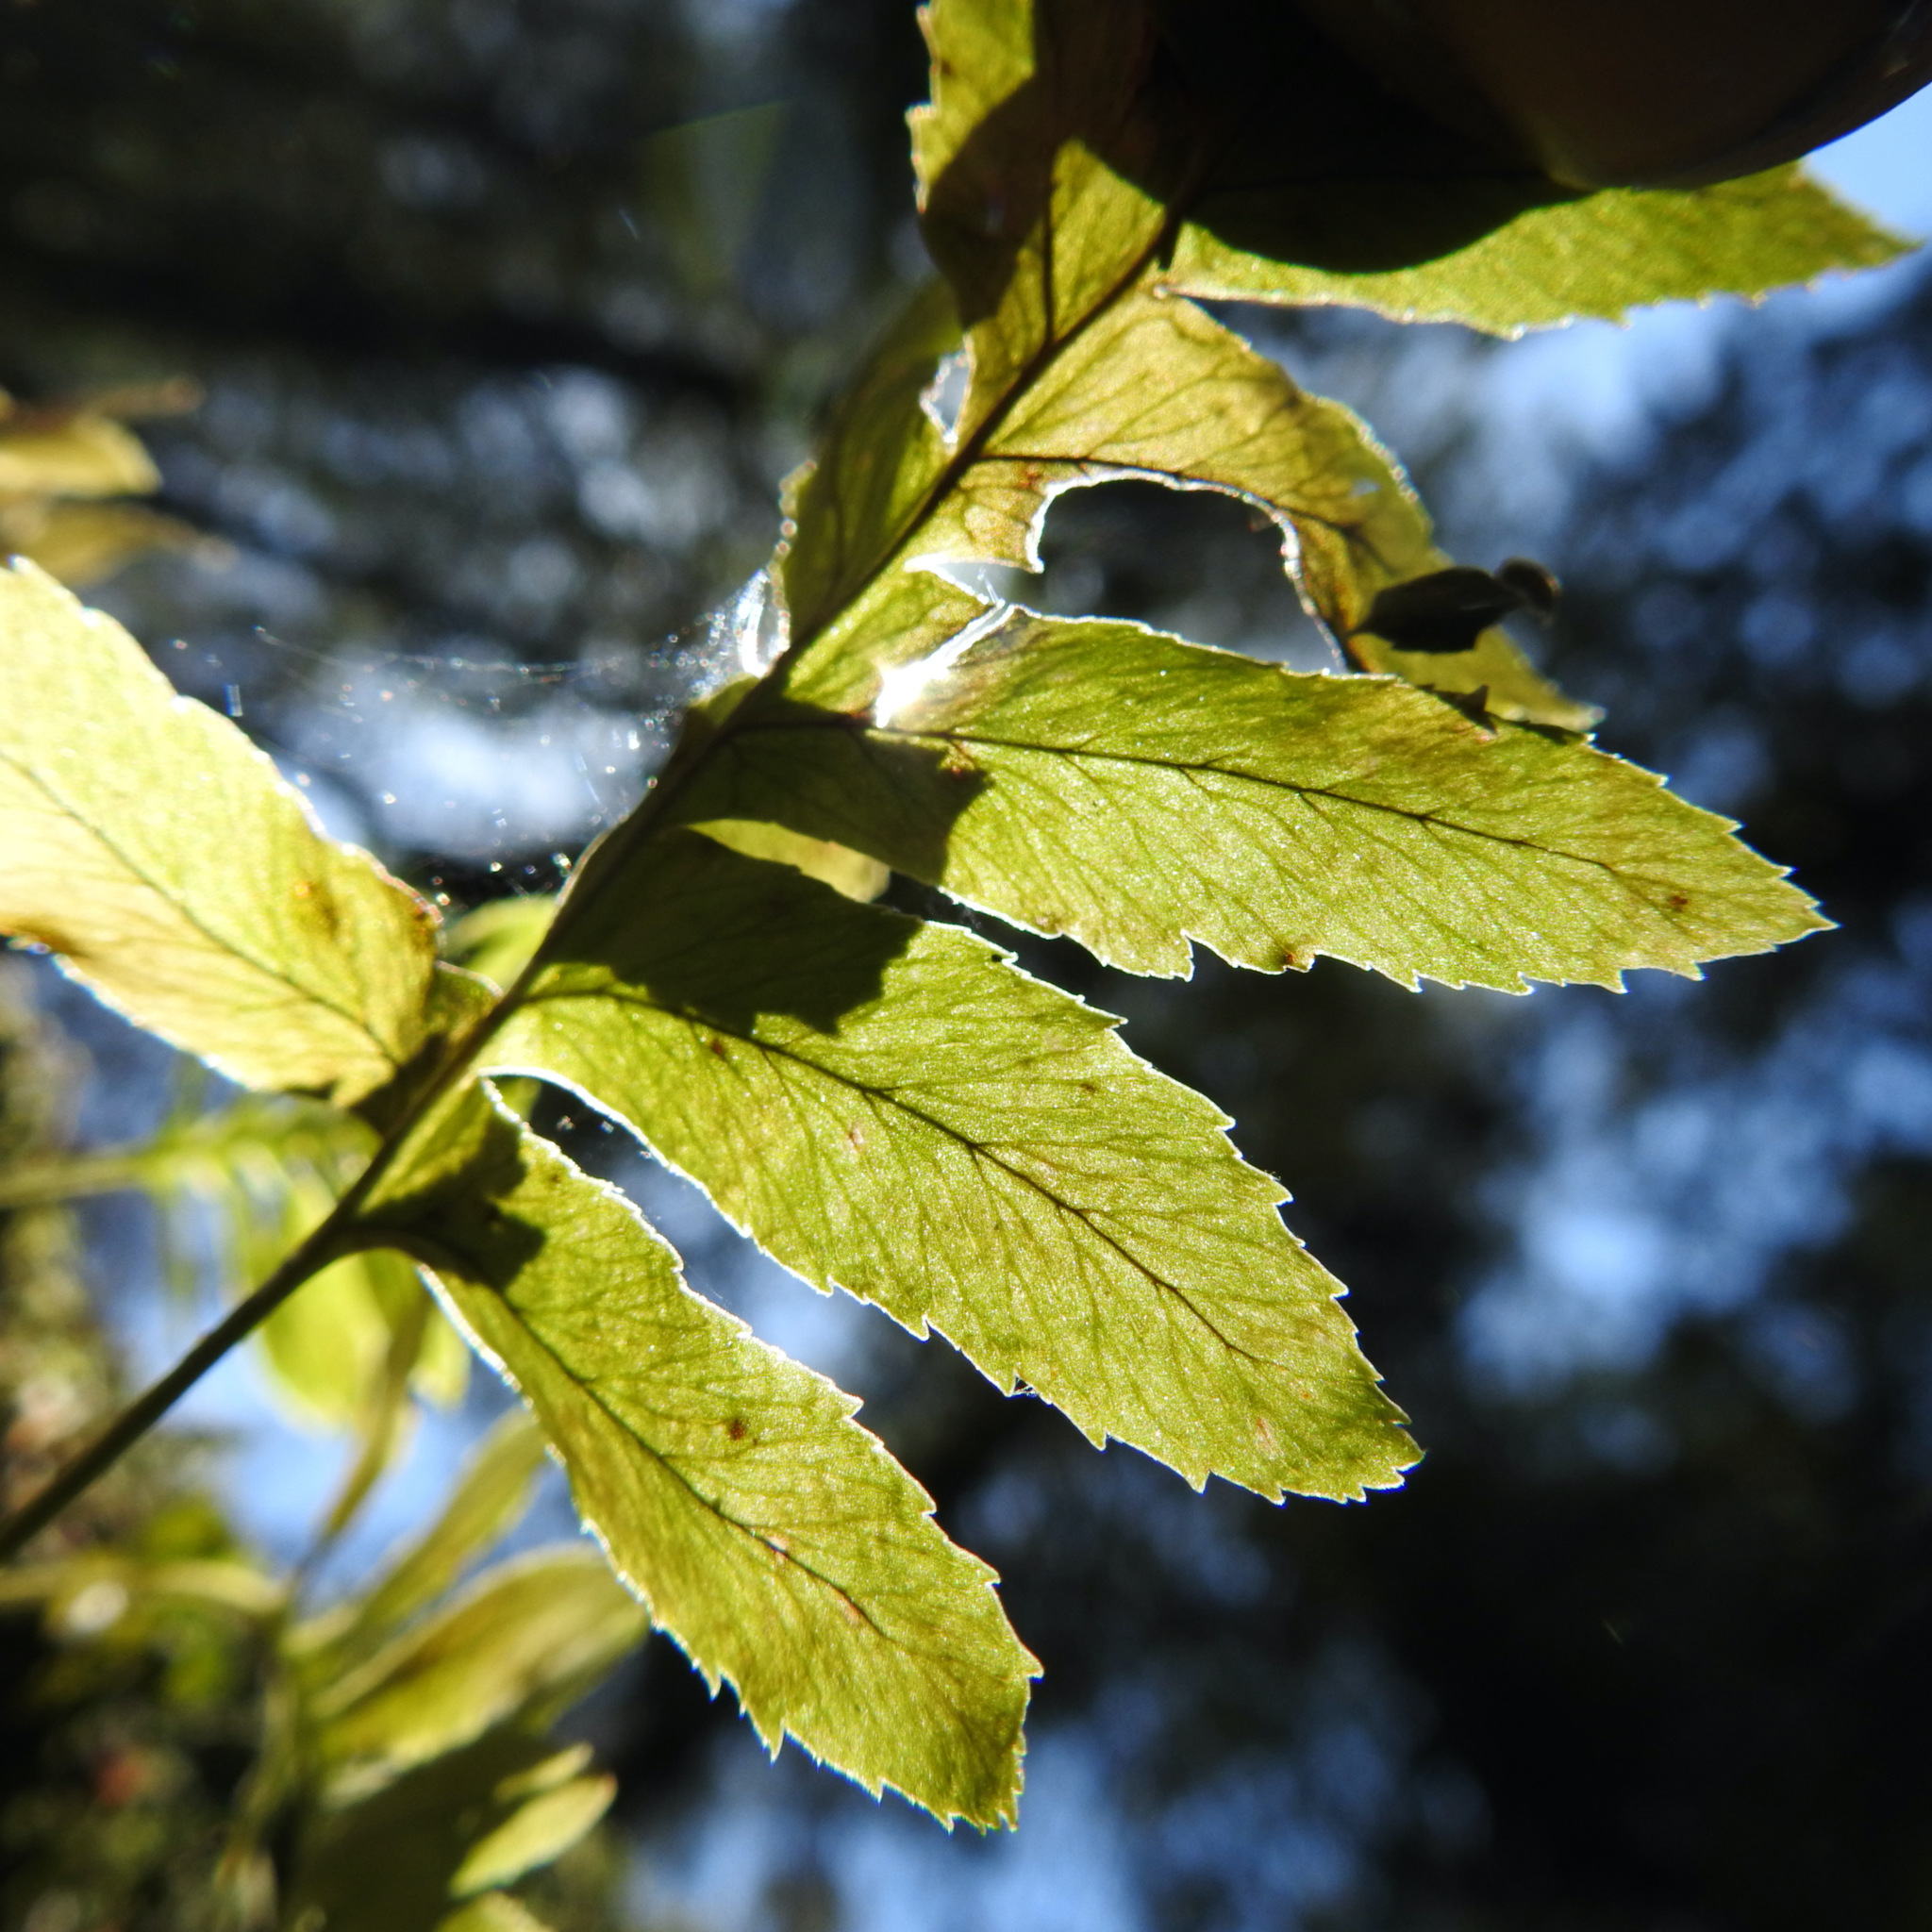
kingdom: Plantae
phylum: Tracheophyta
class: Polypodiopsida
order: Polypodiales
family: Polypodiaceae
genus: Polypodium
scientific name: Polypodium californicum
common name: California polypody
